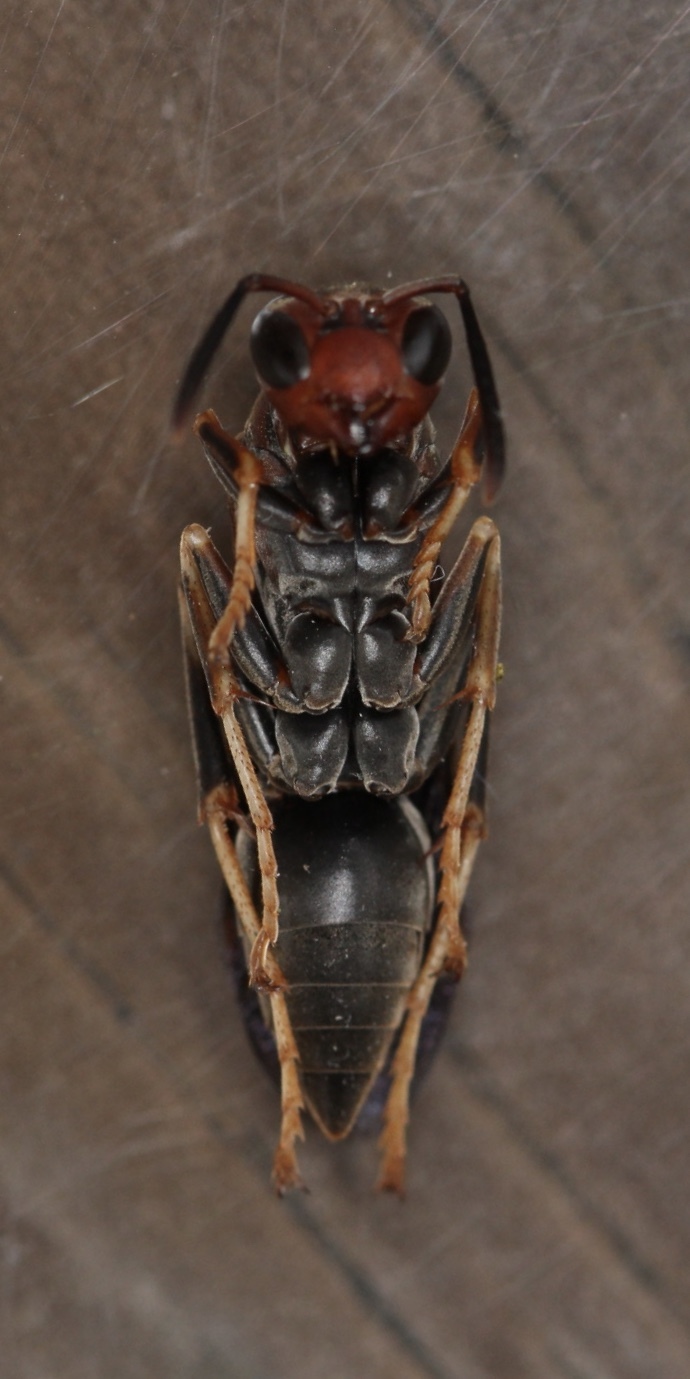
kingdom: Animalia
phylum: Arthropoda
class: Insecta
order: Hymenoptera
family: Eumenidae
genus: Polistes
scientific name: Polistes metricus
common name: Metric paper wasp
